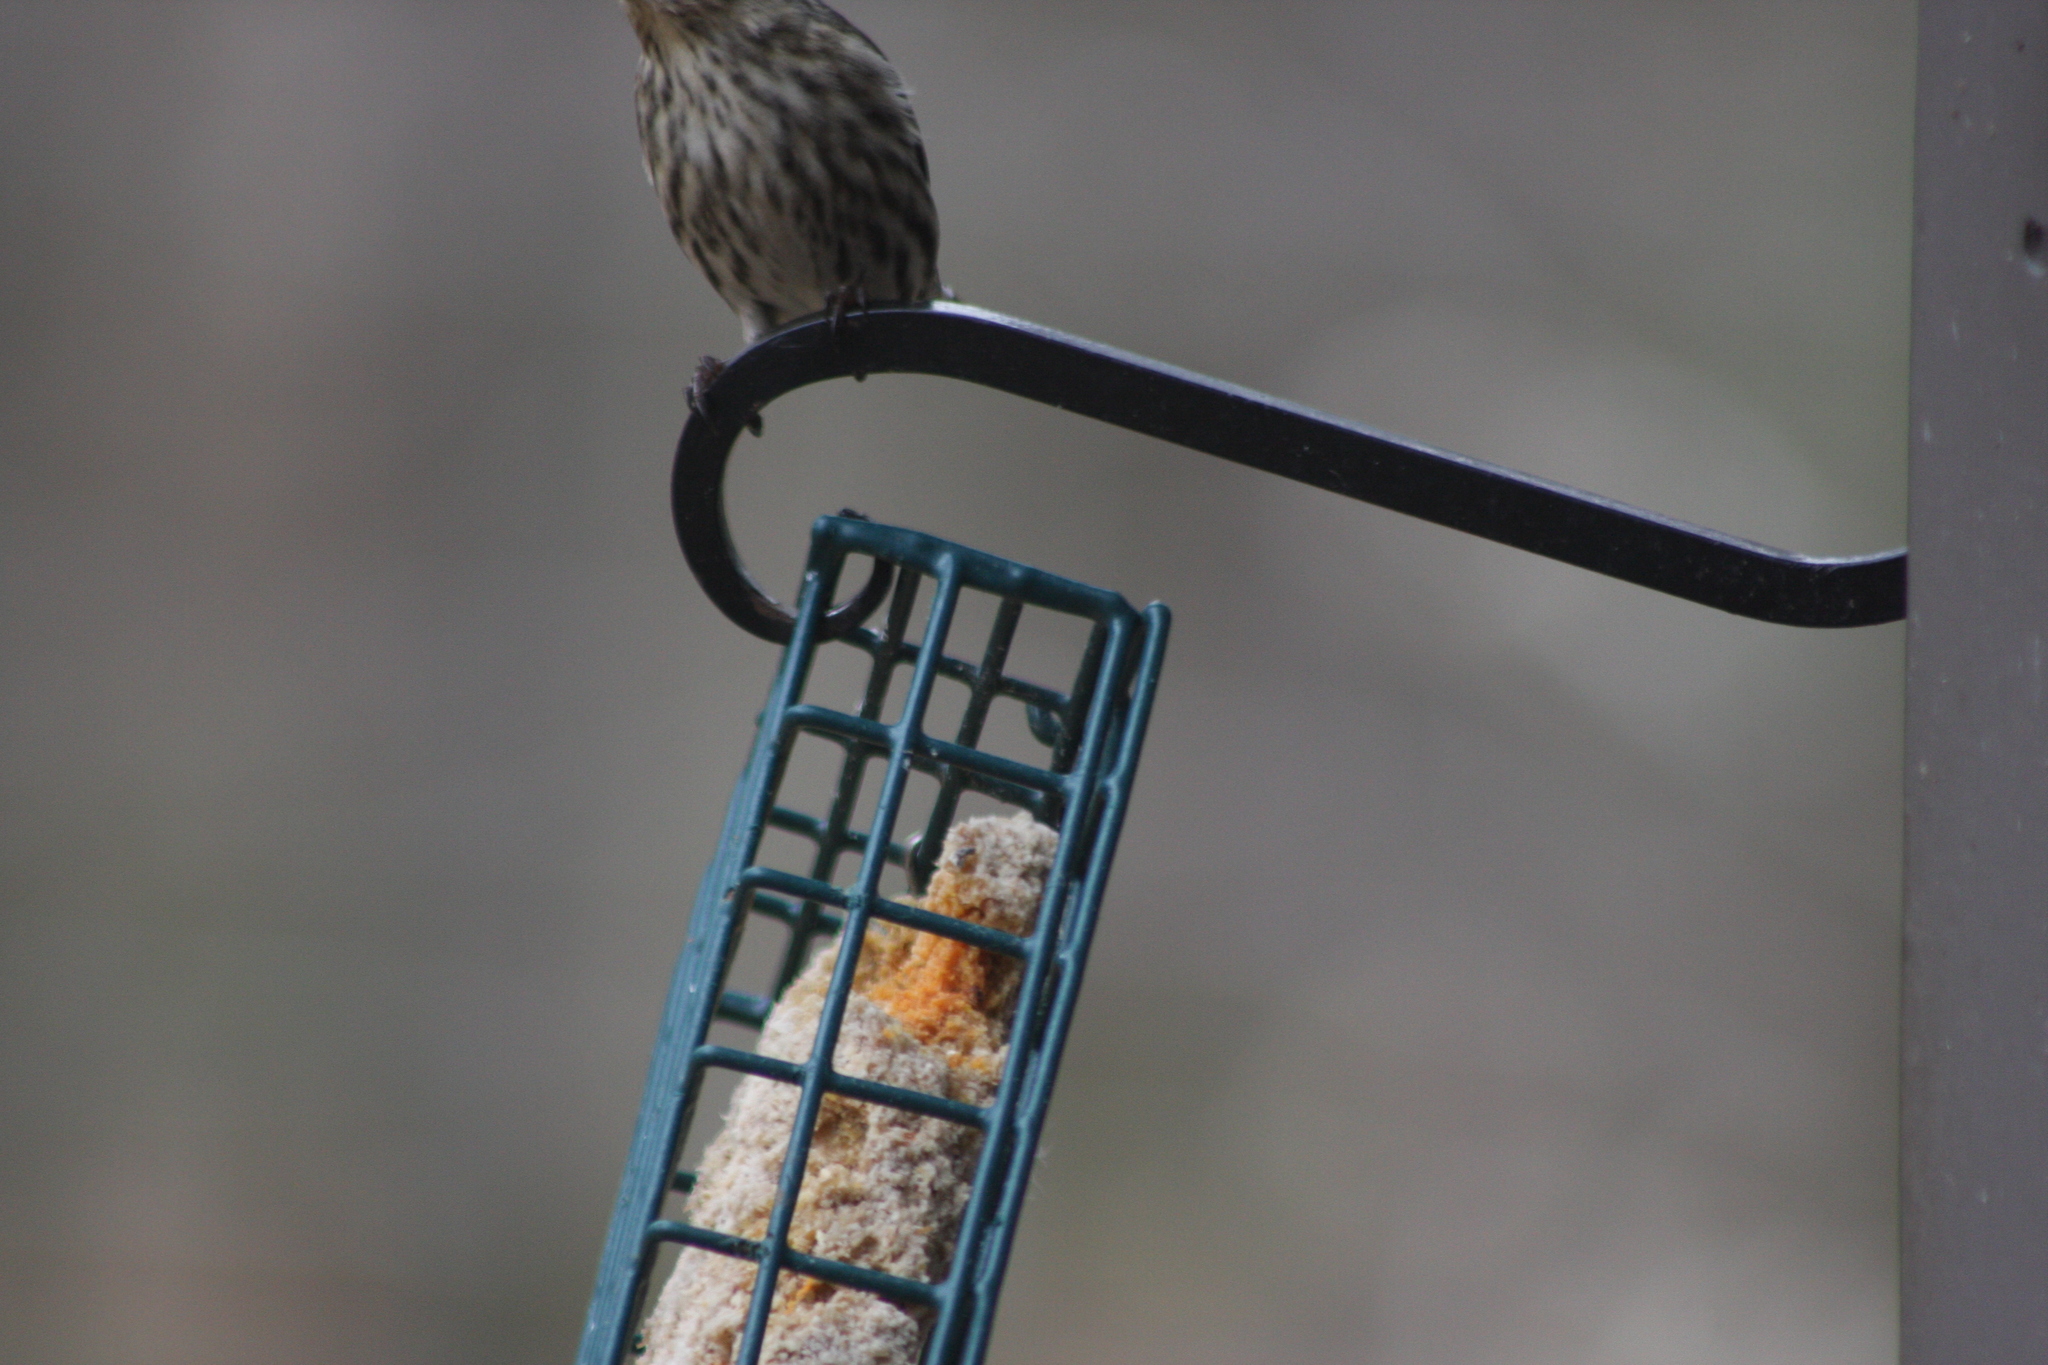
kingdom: Animalia
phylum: Chordata
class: Aves
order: Passeriformes
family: Fringillidae
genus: Spinus
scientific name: Spinus pinus
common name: Pine siskin
